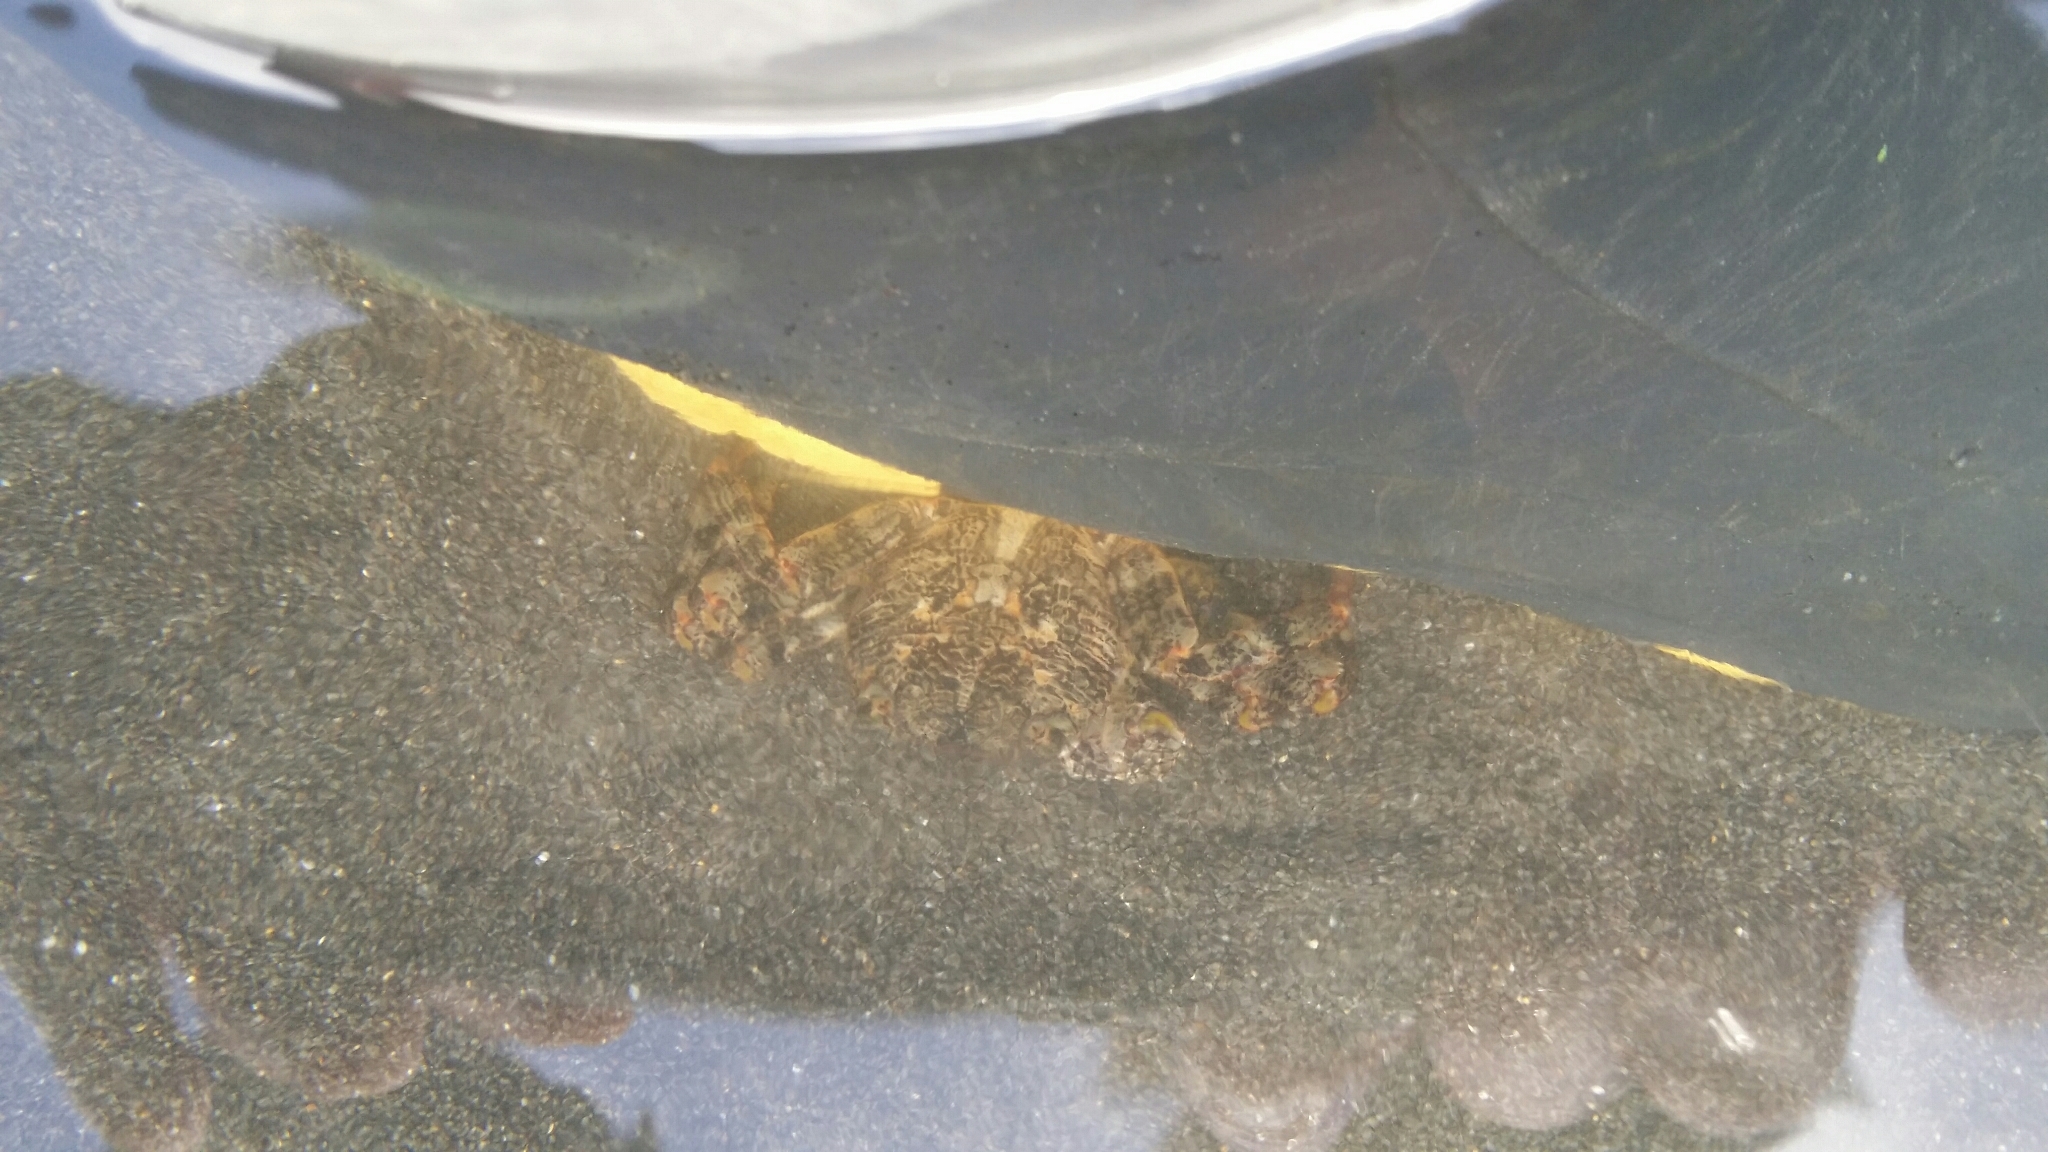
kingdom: Animalia
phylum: Arthropoda
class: Malacostraca
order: Decapoda
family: Grapsidae
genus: Leptograpsus
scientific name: Leptograpsus variegatus
